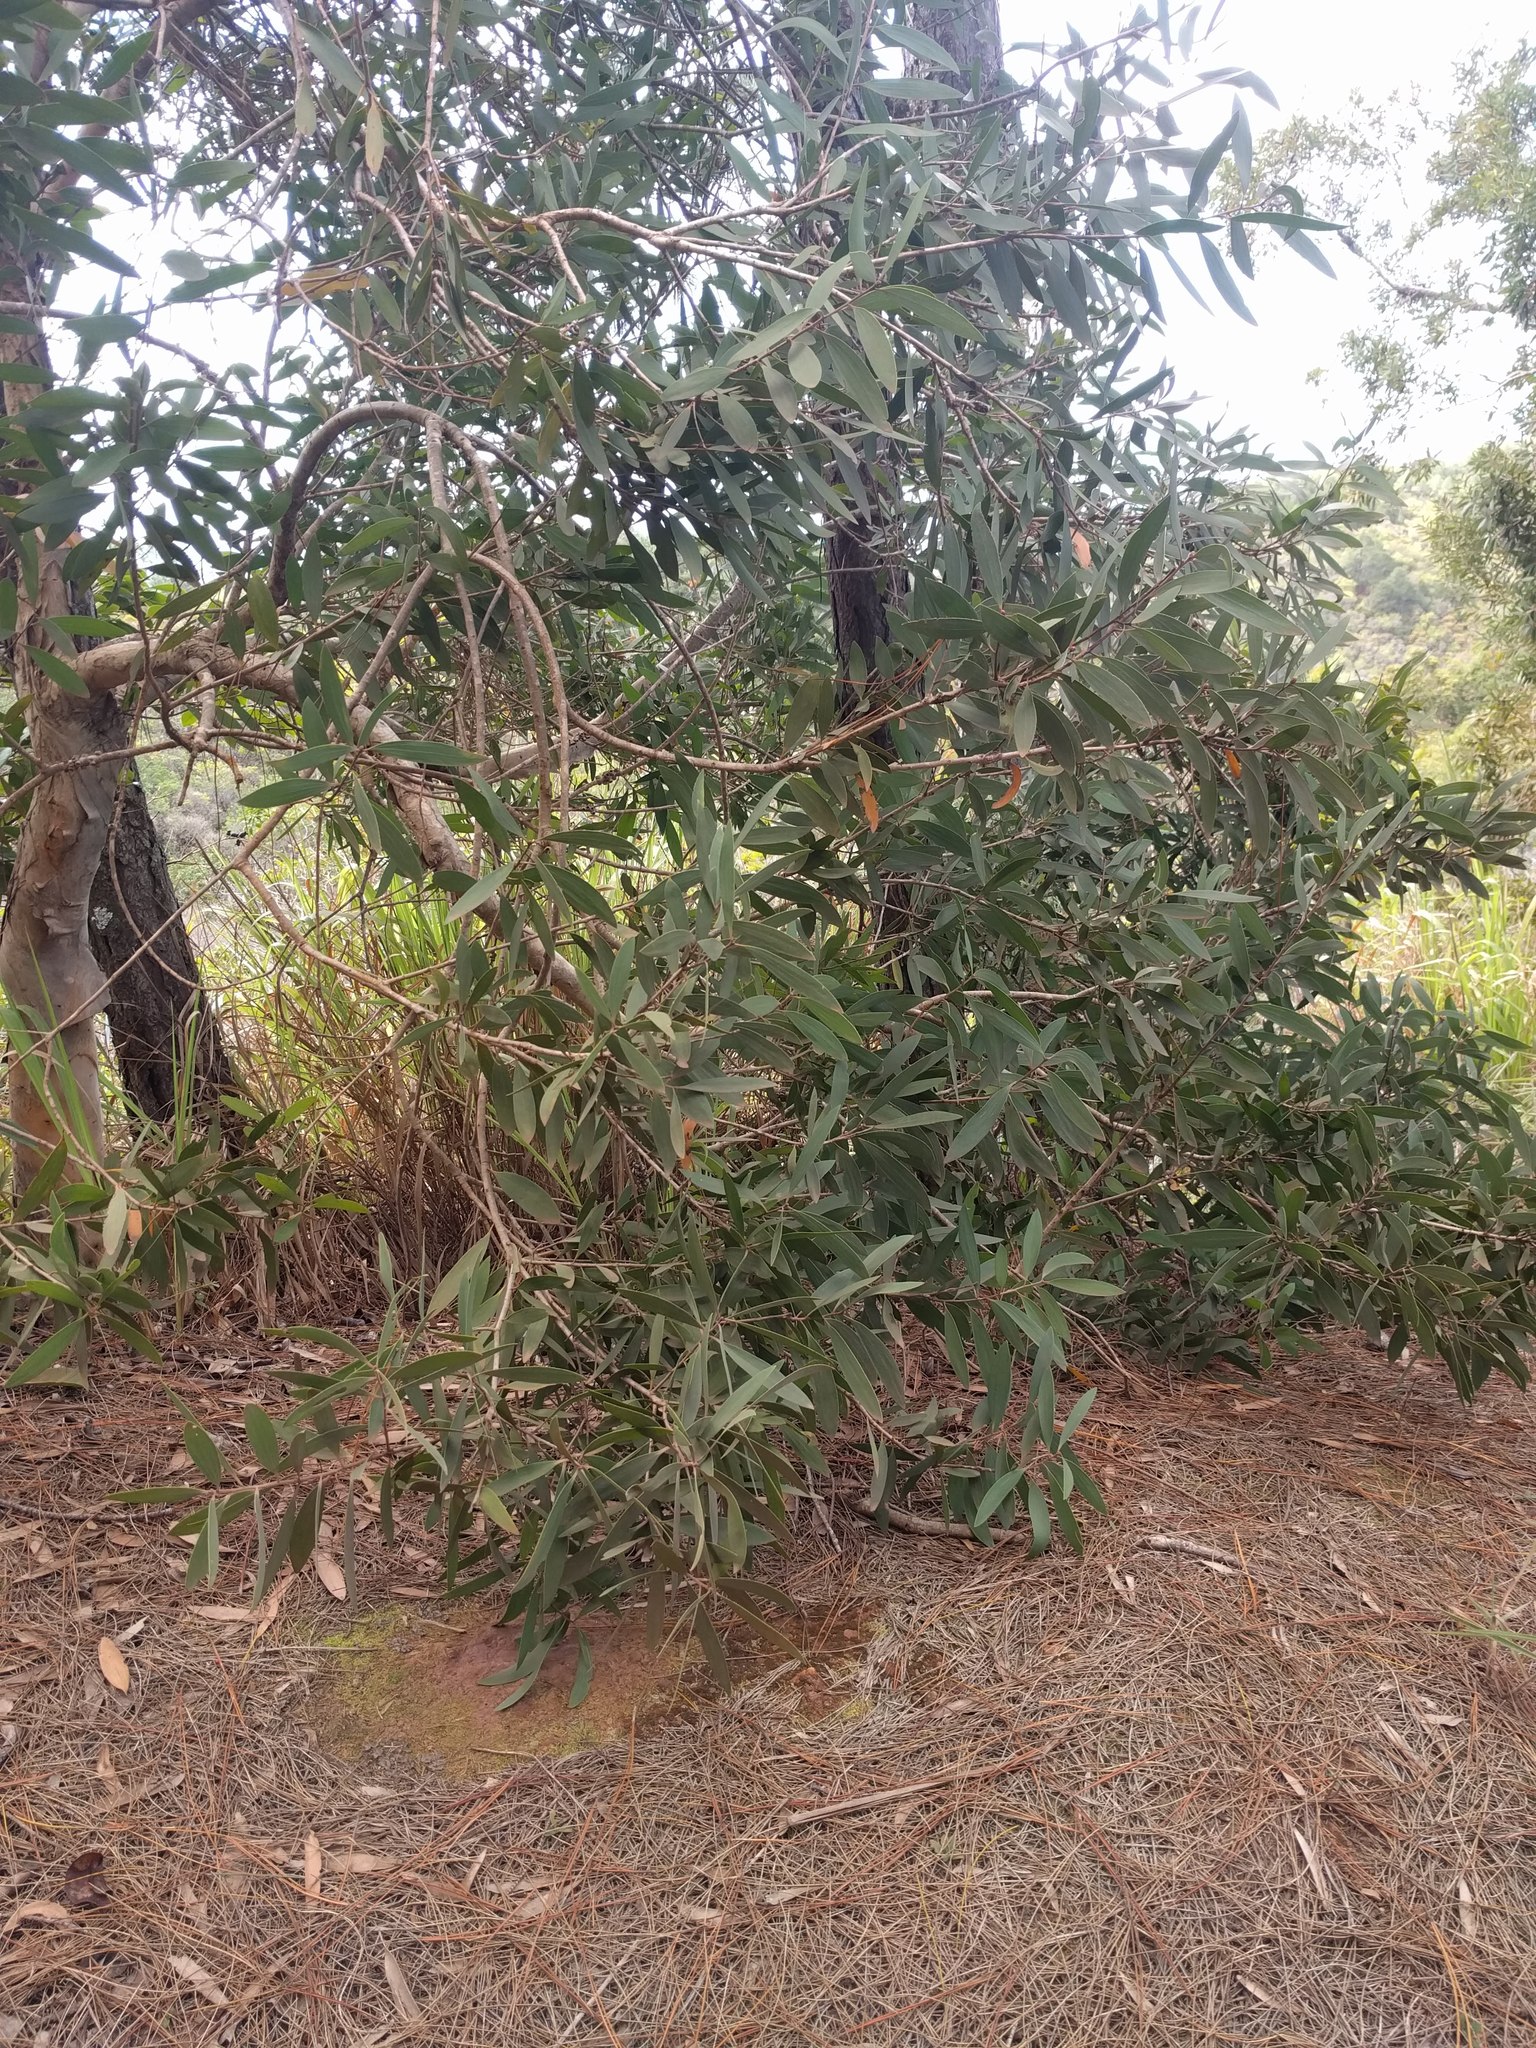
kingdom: Plantae
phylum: Tracheophyta
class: Magnoliopsida
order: Myrtales
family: Myrtaceae
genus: Melaleuca
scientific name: Melaleuca quinquenervia
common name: Punktree
